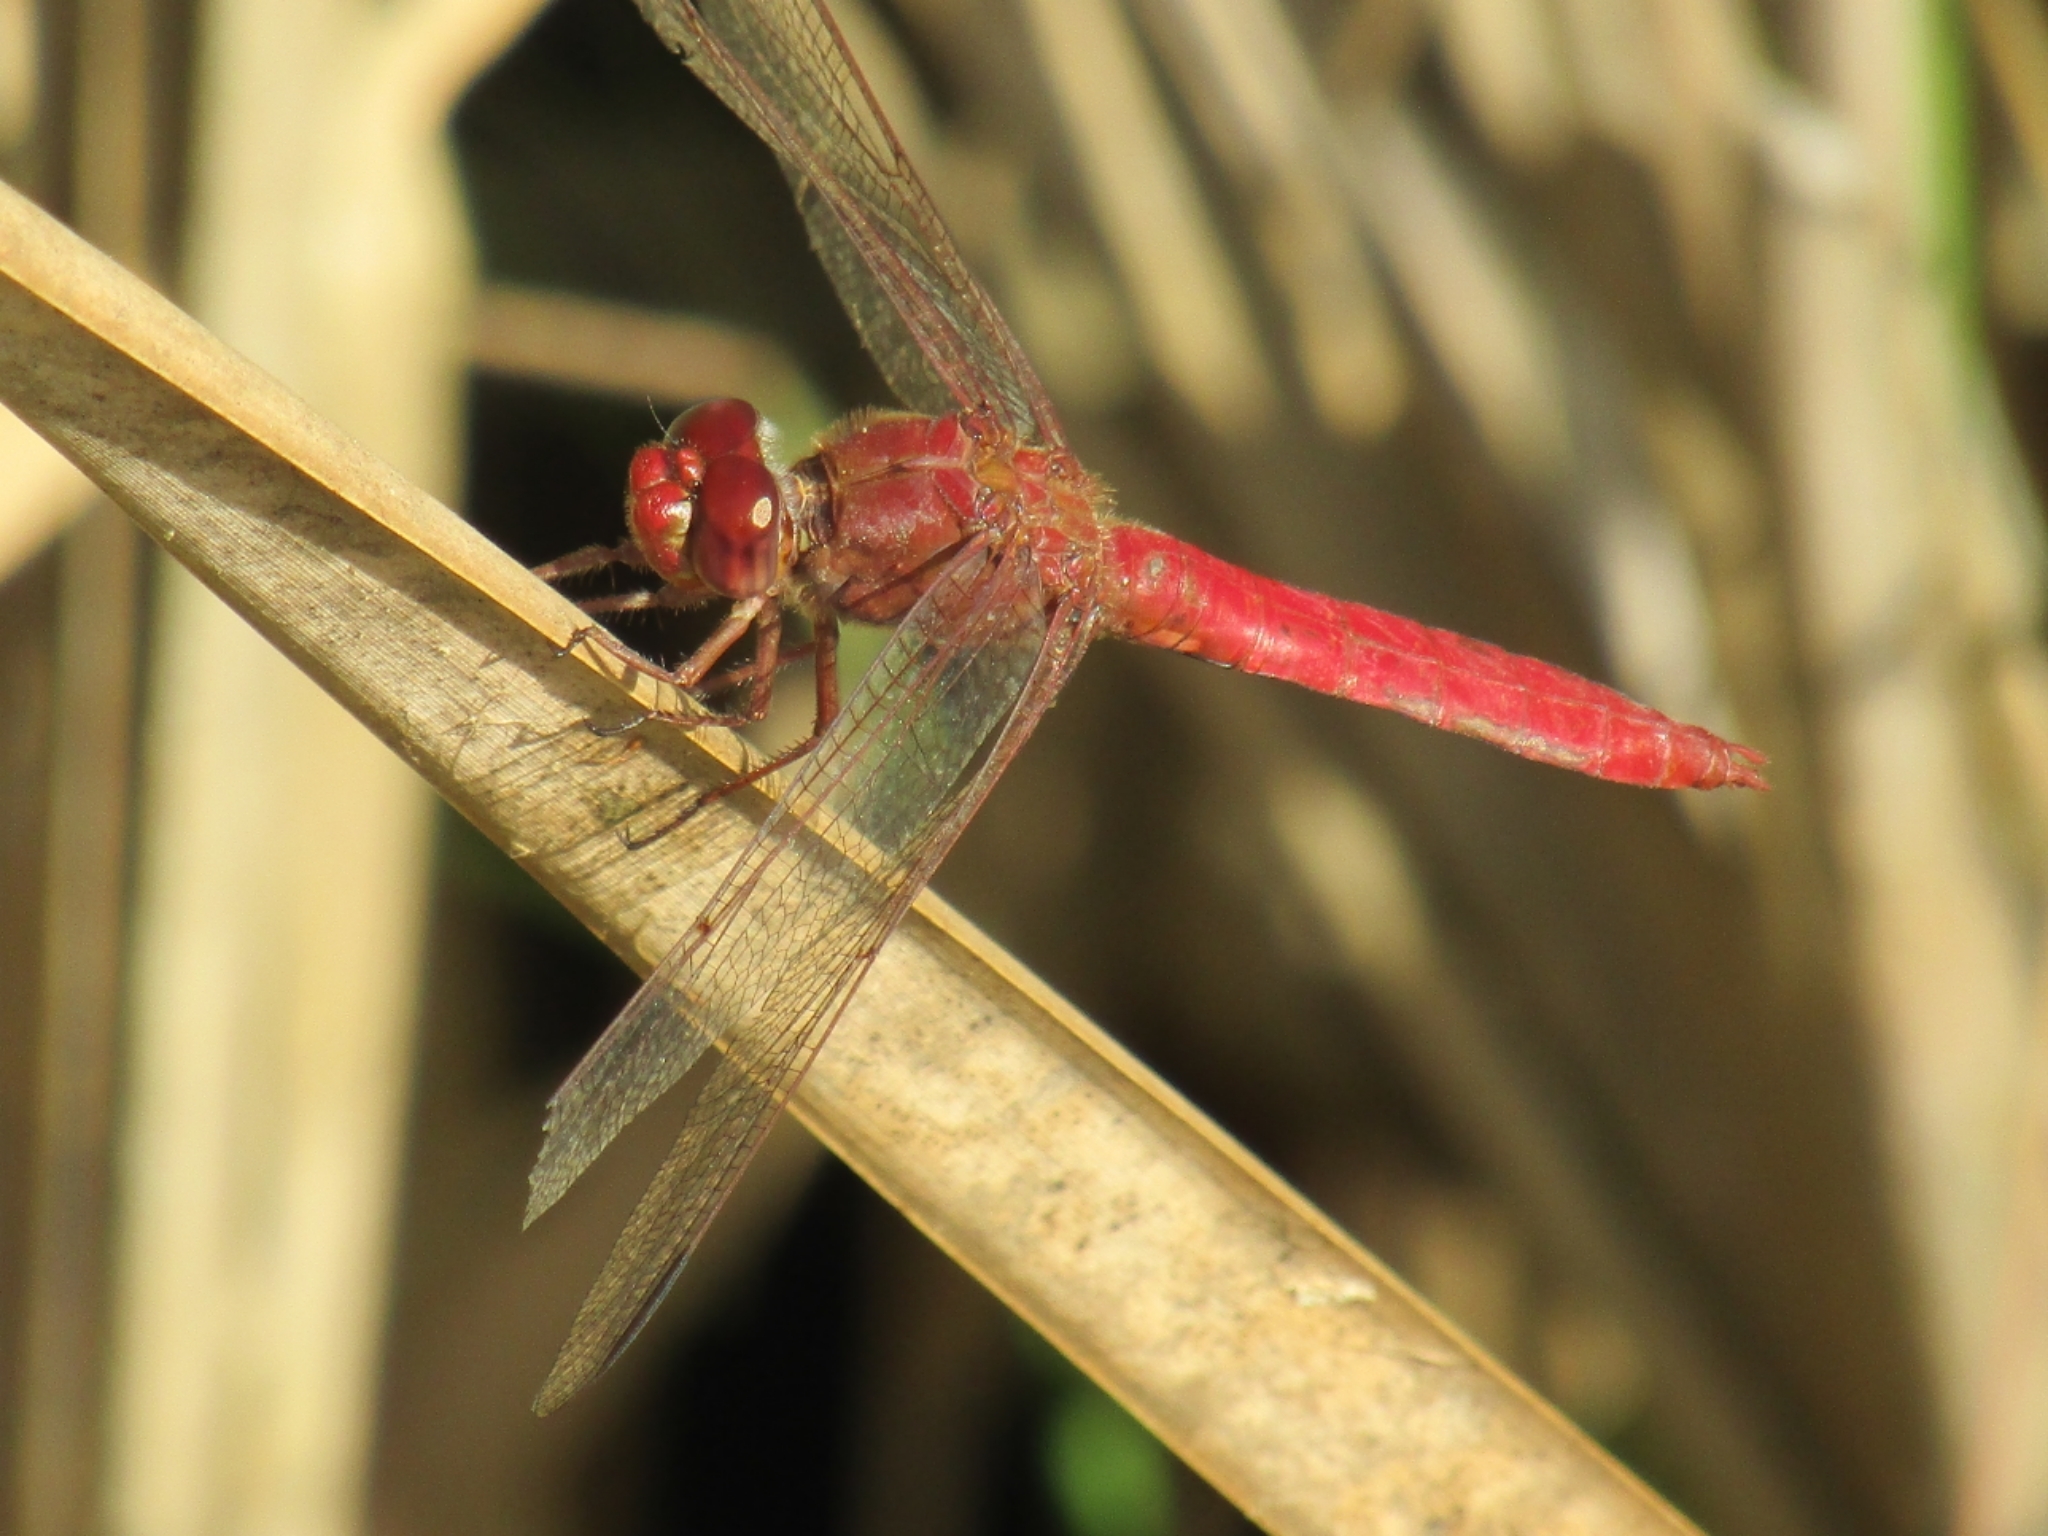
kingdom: Animalia
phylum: Arthropoda
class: Insecta
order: Odonata
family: Libellulidae
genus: Orthemis
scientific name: Orthemis nodiplaga
